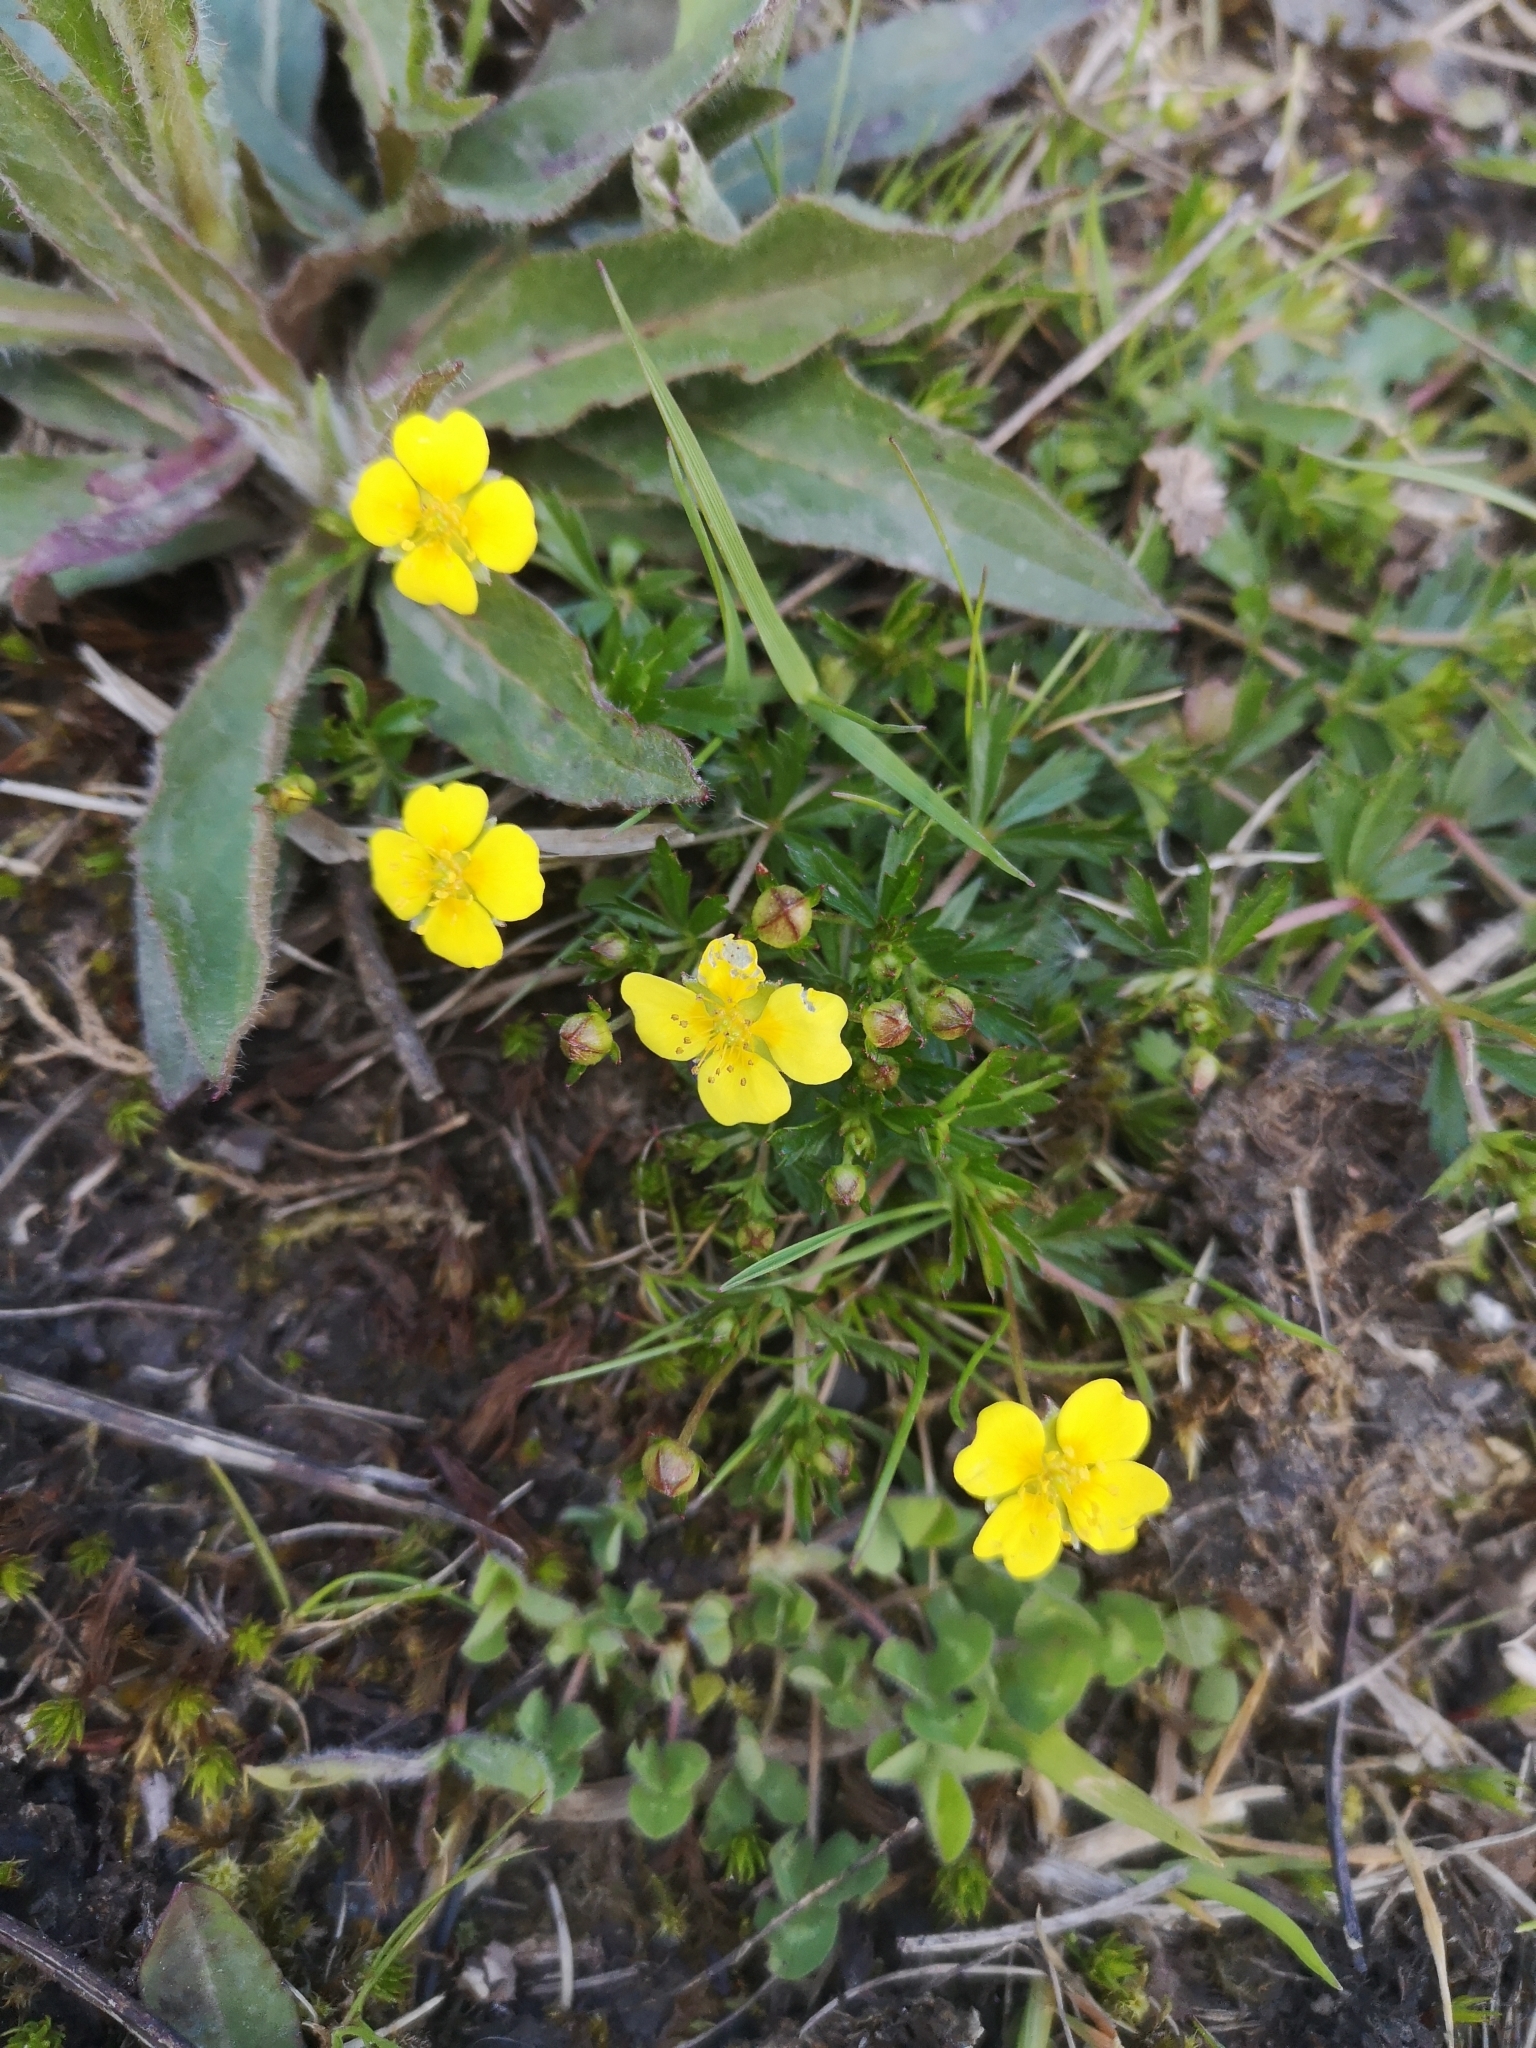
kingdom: Plantae
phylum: Tracheophyta
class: Magnoliopsida
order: Rosales
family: Rosaceae
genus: Potentilla
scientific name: Potentilla erecta
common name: Tormentil
